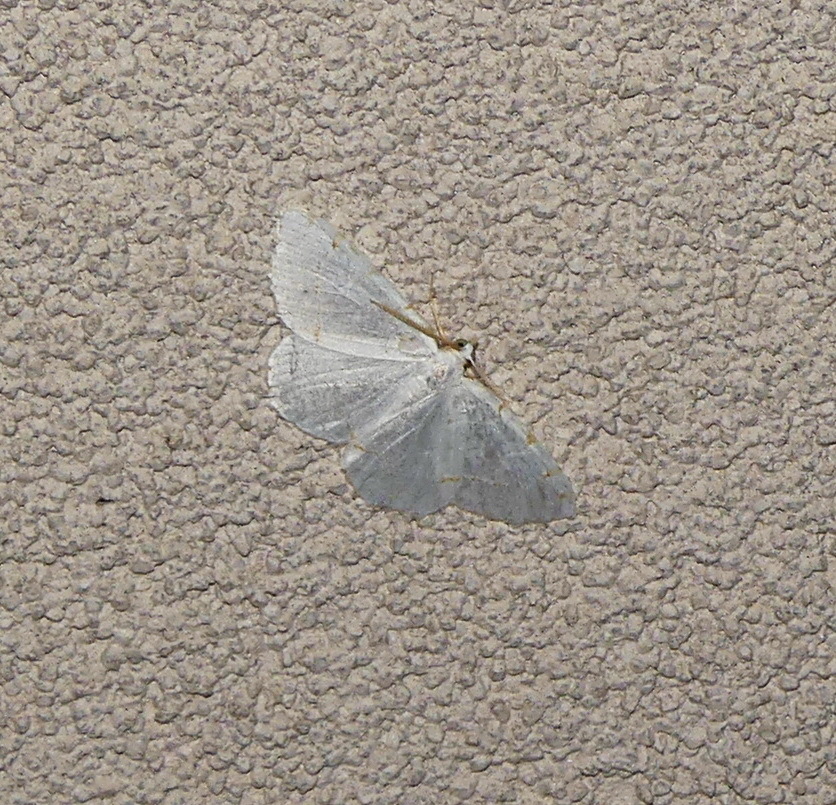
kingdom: Animalia
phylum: Arthropoda
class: Insecta
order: Lepidoptera
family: Geometridae
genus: Macaria
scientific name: Macaria pustularia
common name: Lesser maple spanworm moth
